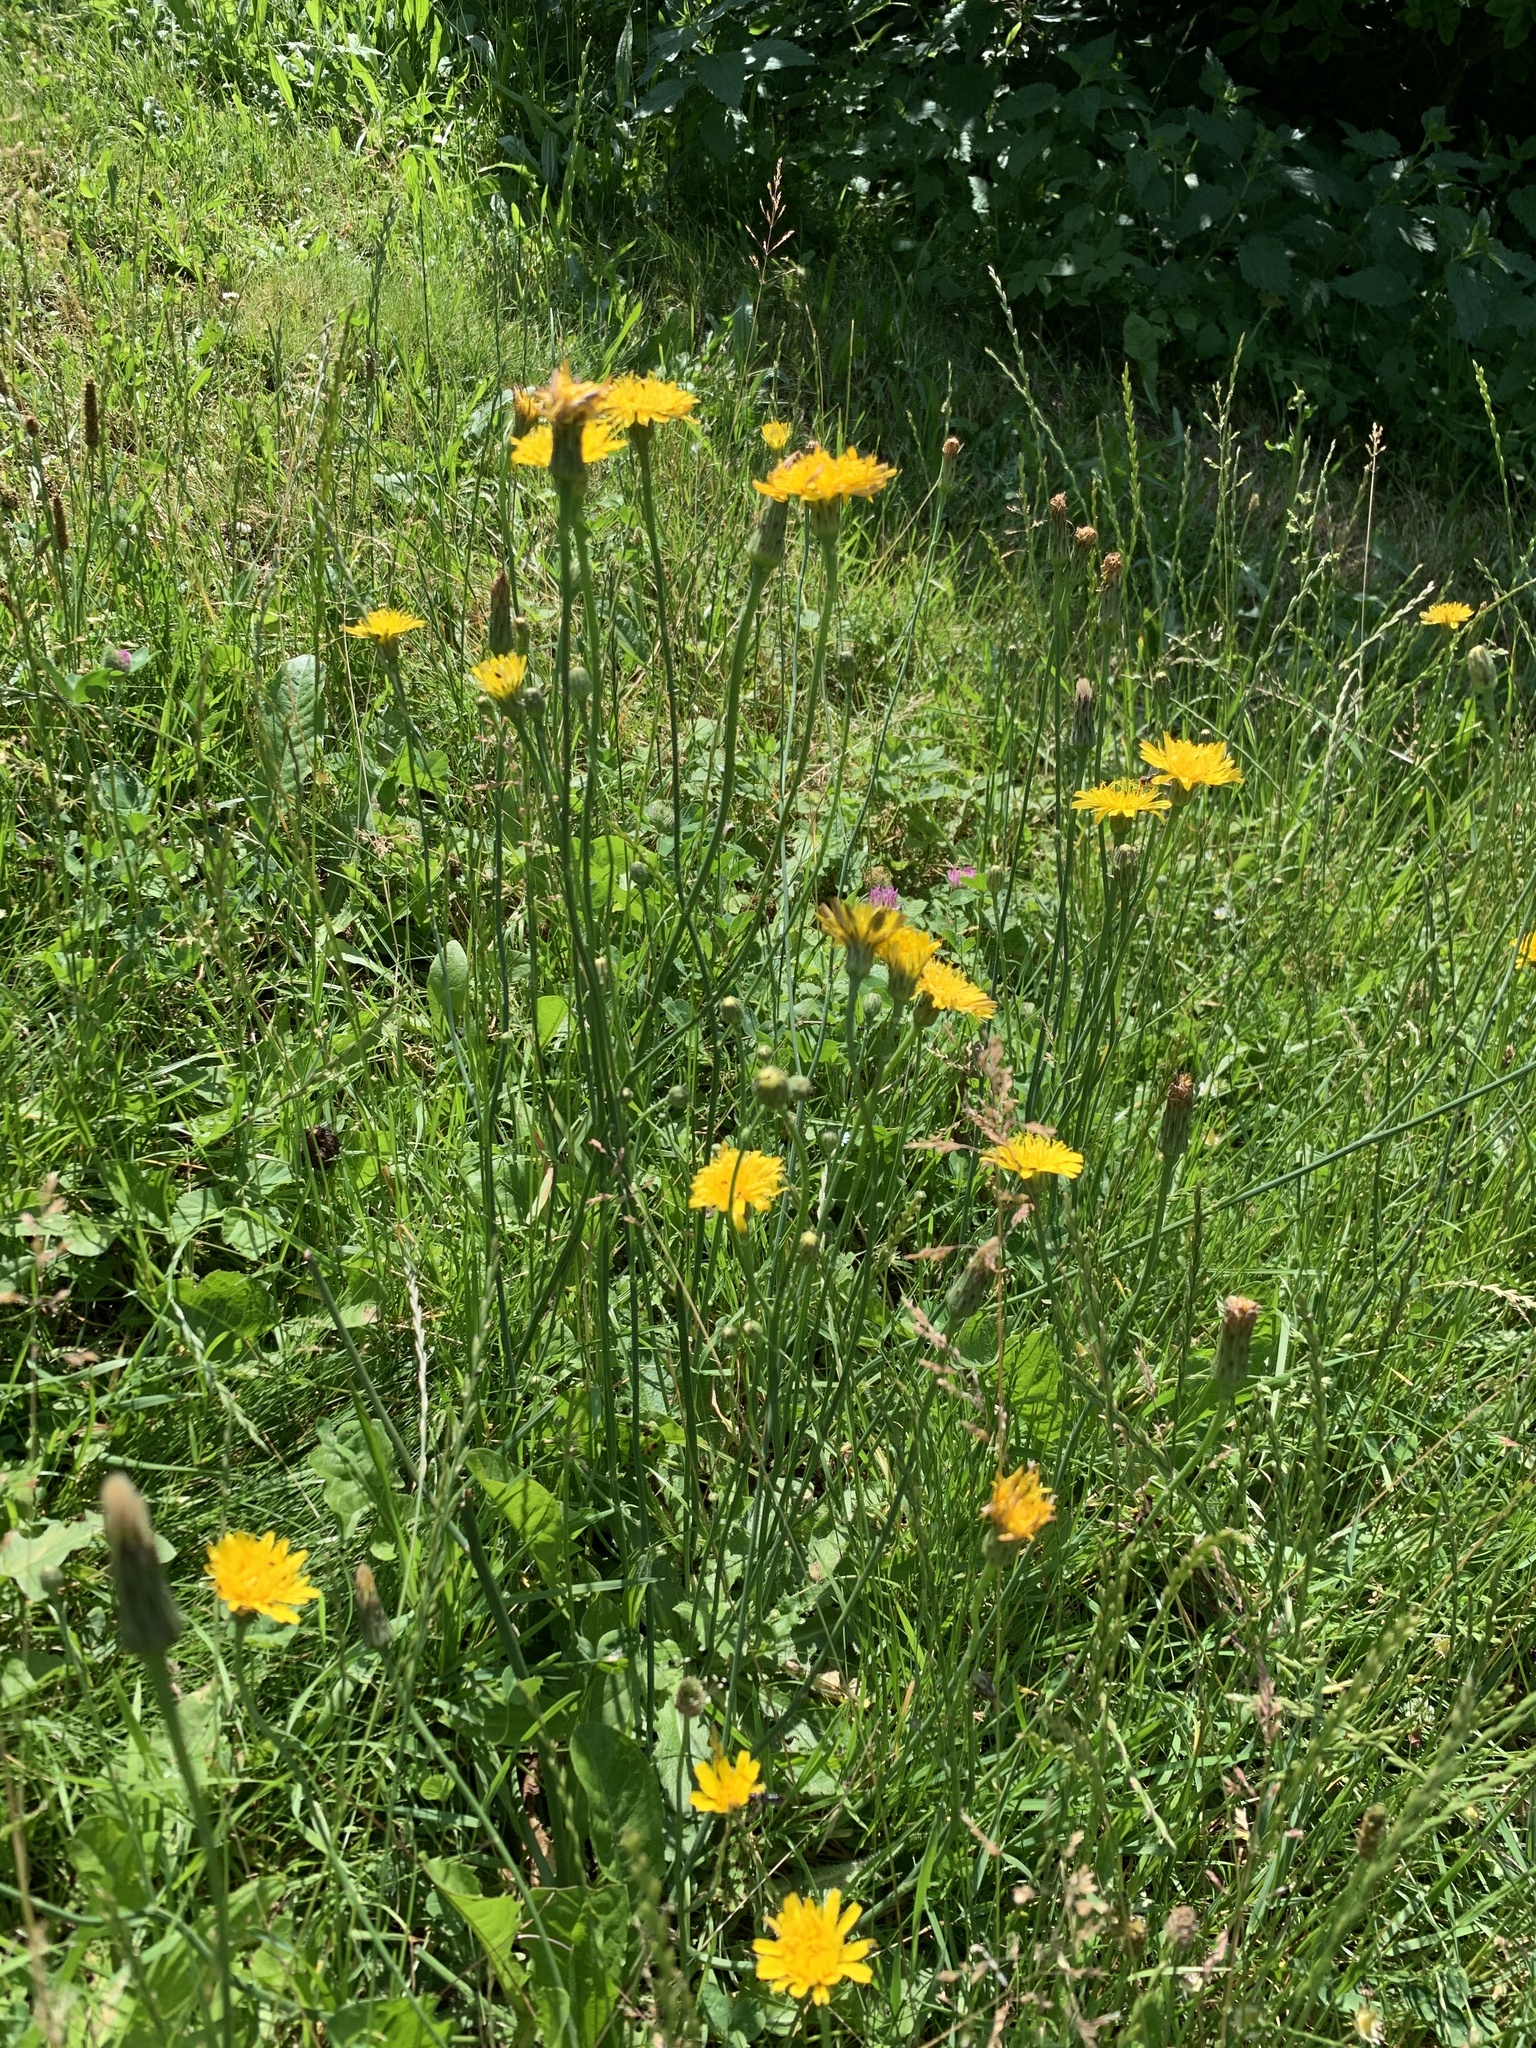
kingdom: Plantae
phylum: Tracheophyta
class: Magnoliopsida
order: Asterales
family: Asteraceae
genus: Hypochaeris
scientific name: Hypochaeris radicata
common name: Flatweed
